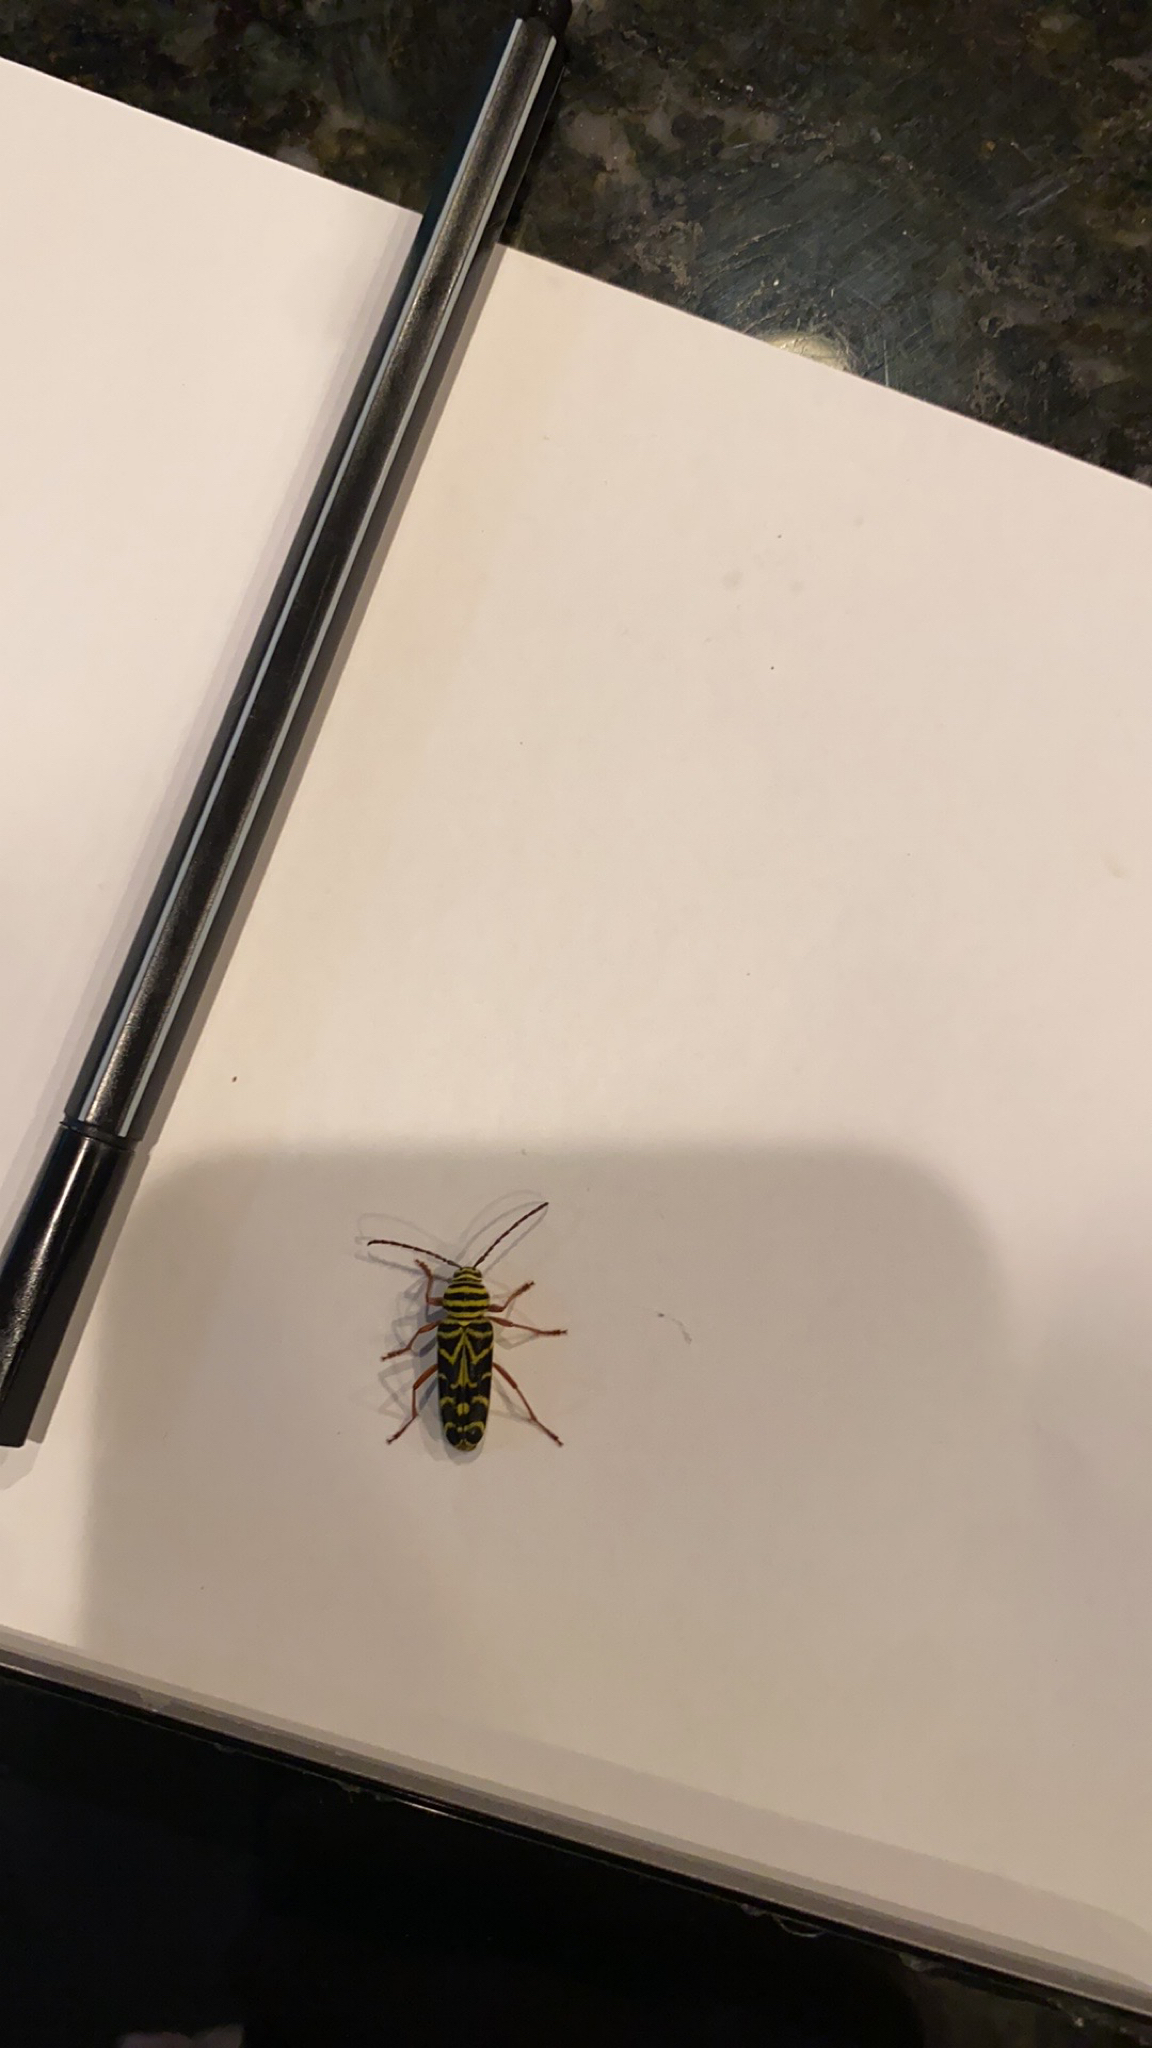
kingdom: Animalia
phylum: Arthropoda
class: Insecta
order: Coleoptera
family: Cerambycidae
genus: Megacyllene
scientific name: Megacyllene robiniae
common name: Locust borer
